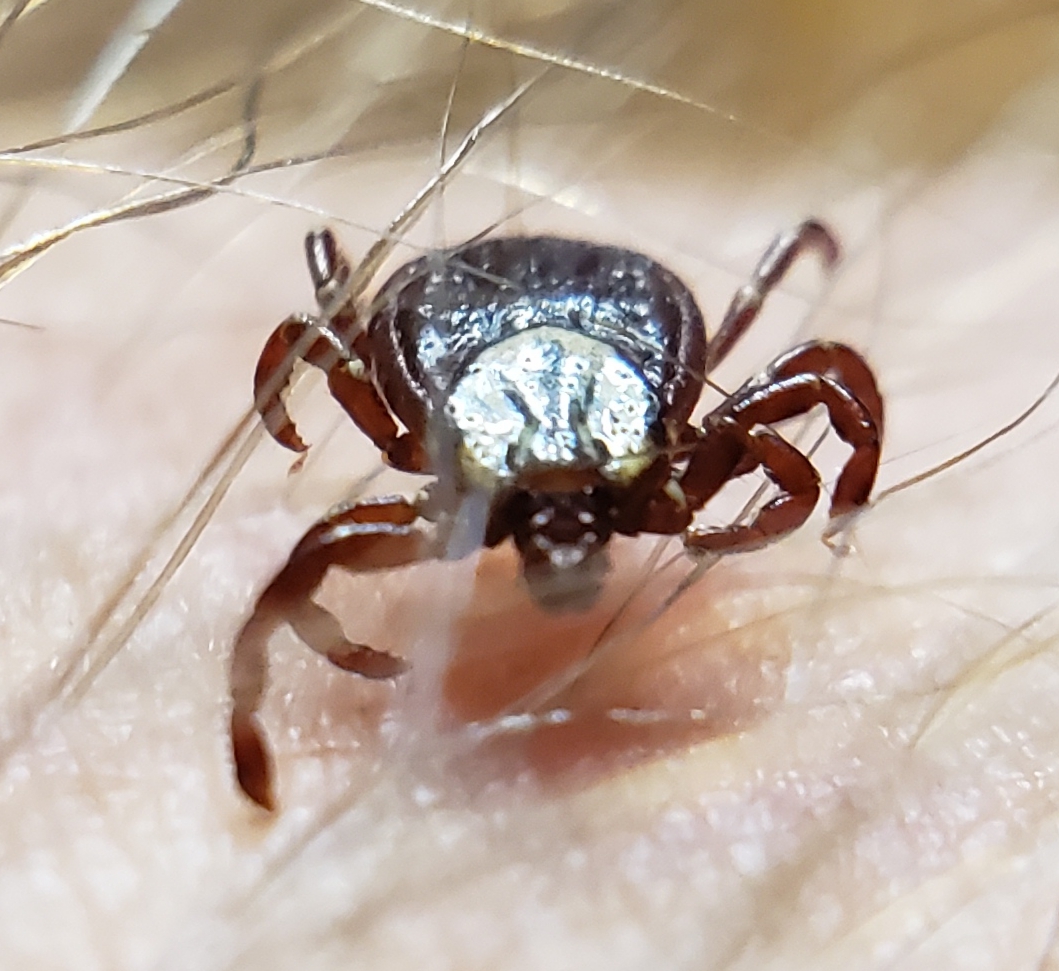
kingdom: Animalia
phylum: Arthropoda
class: Arachnida
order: Ixodida
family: Ixodidae
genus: Dermacentor
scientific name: Dermacentor variabilis
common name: American dog tick
